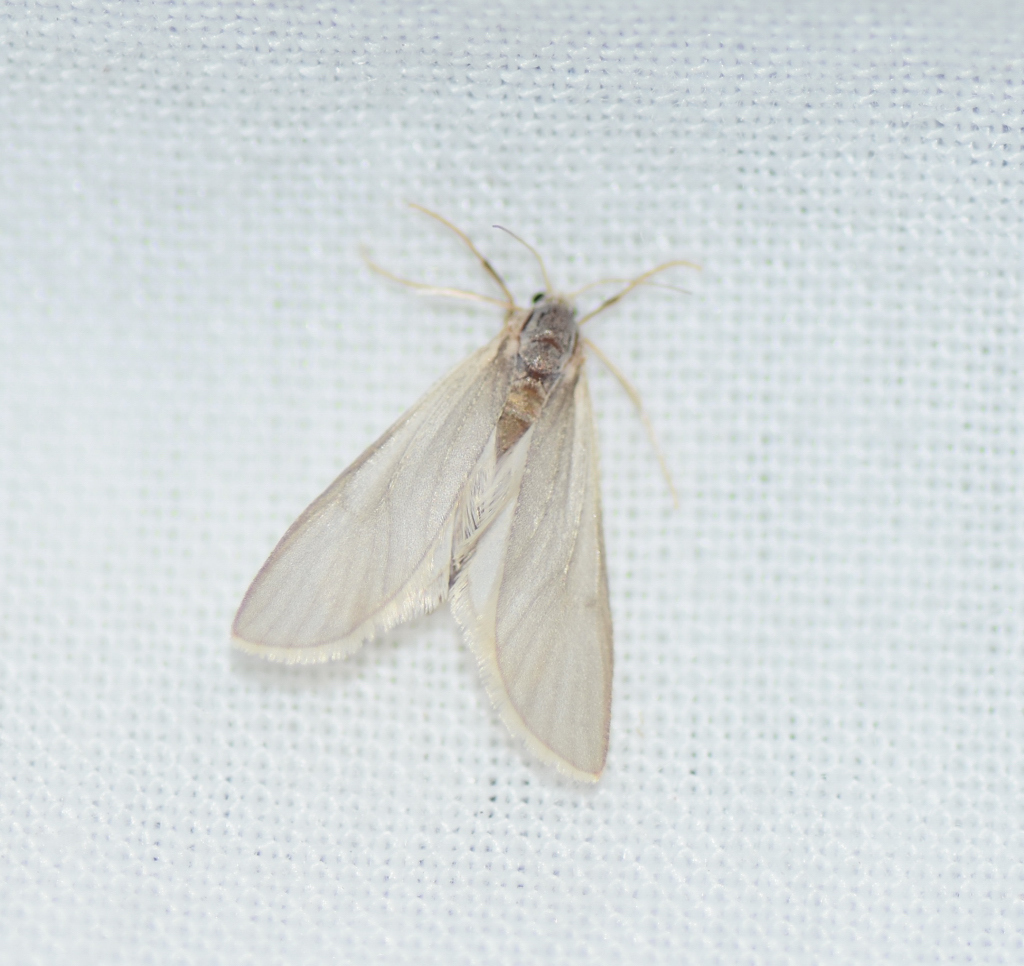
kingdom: Animalia
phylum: Arthropoda
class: Insecta
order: Lepidoptera
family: Crambidae
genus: Acentria
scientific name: Acentria ephemerella
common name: European water moth
